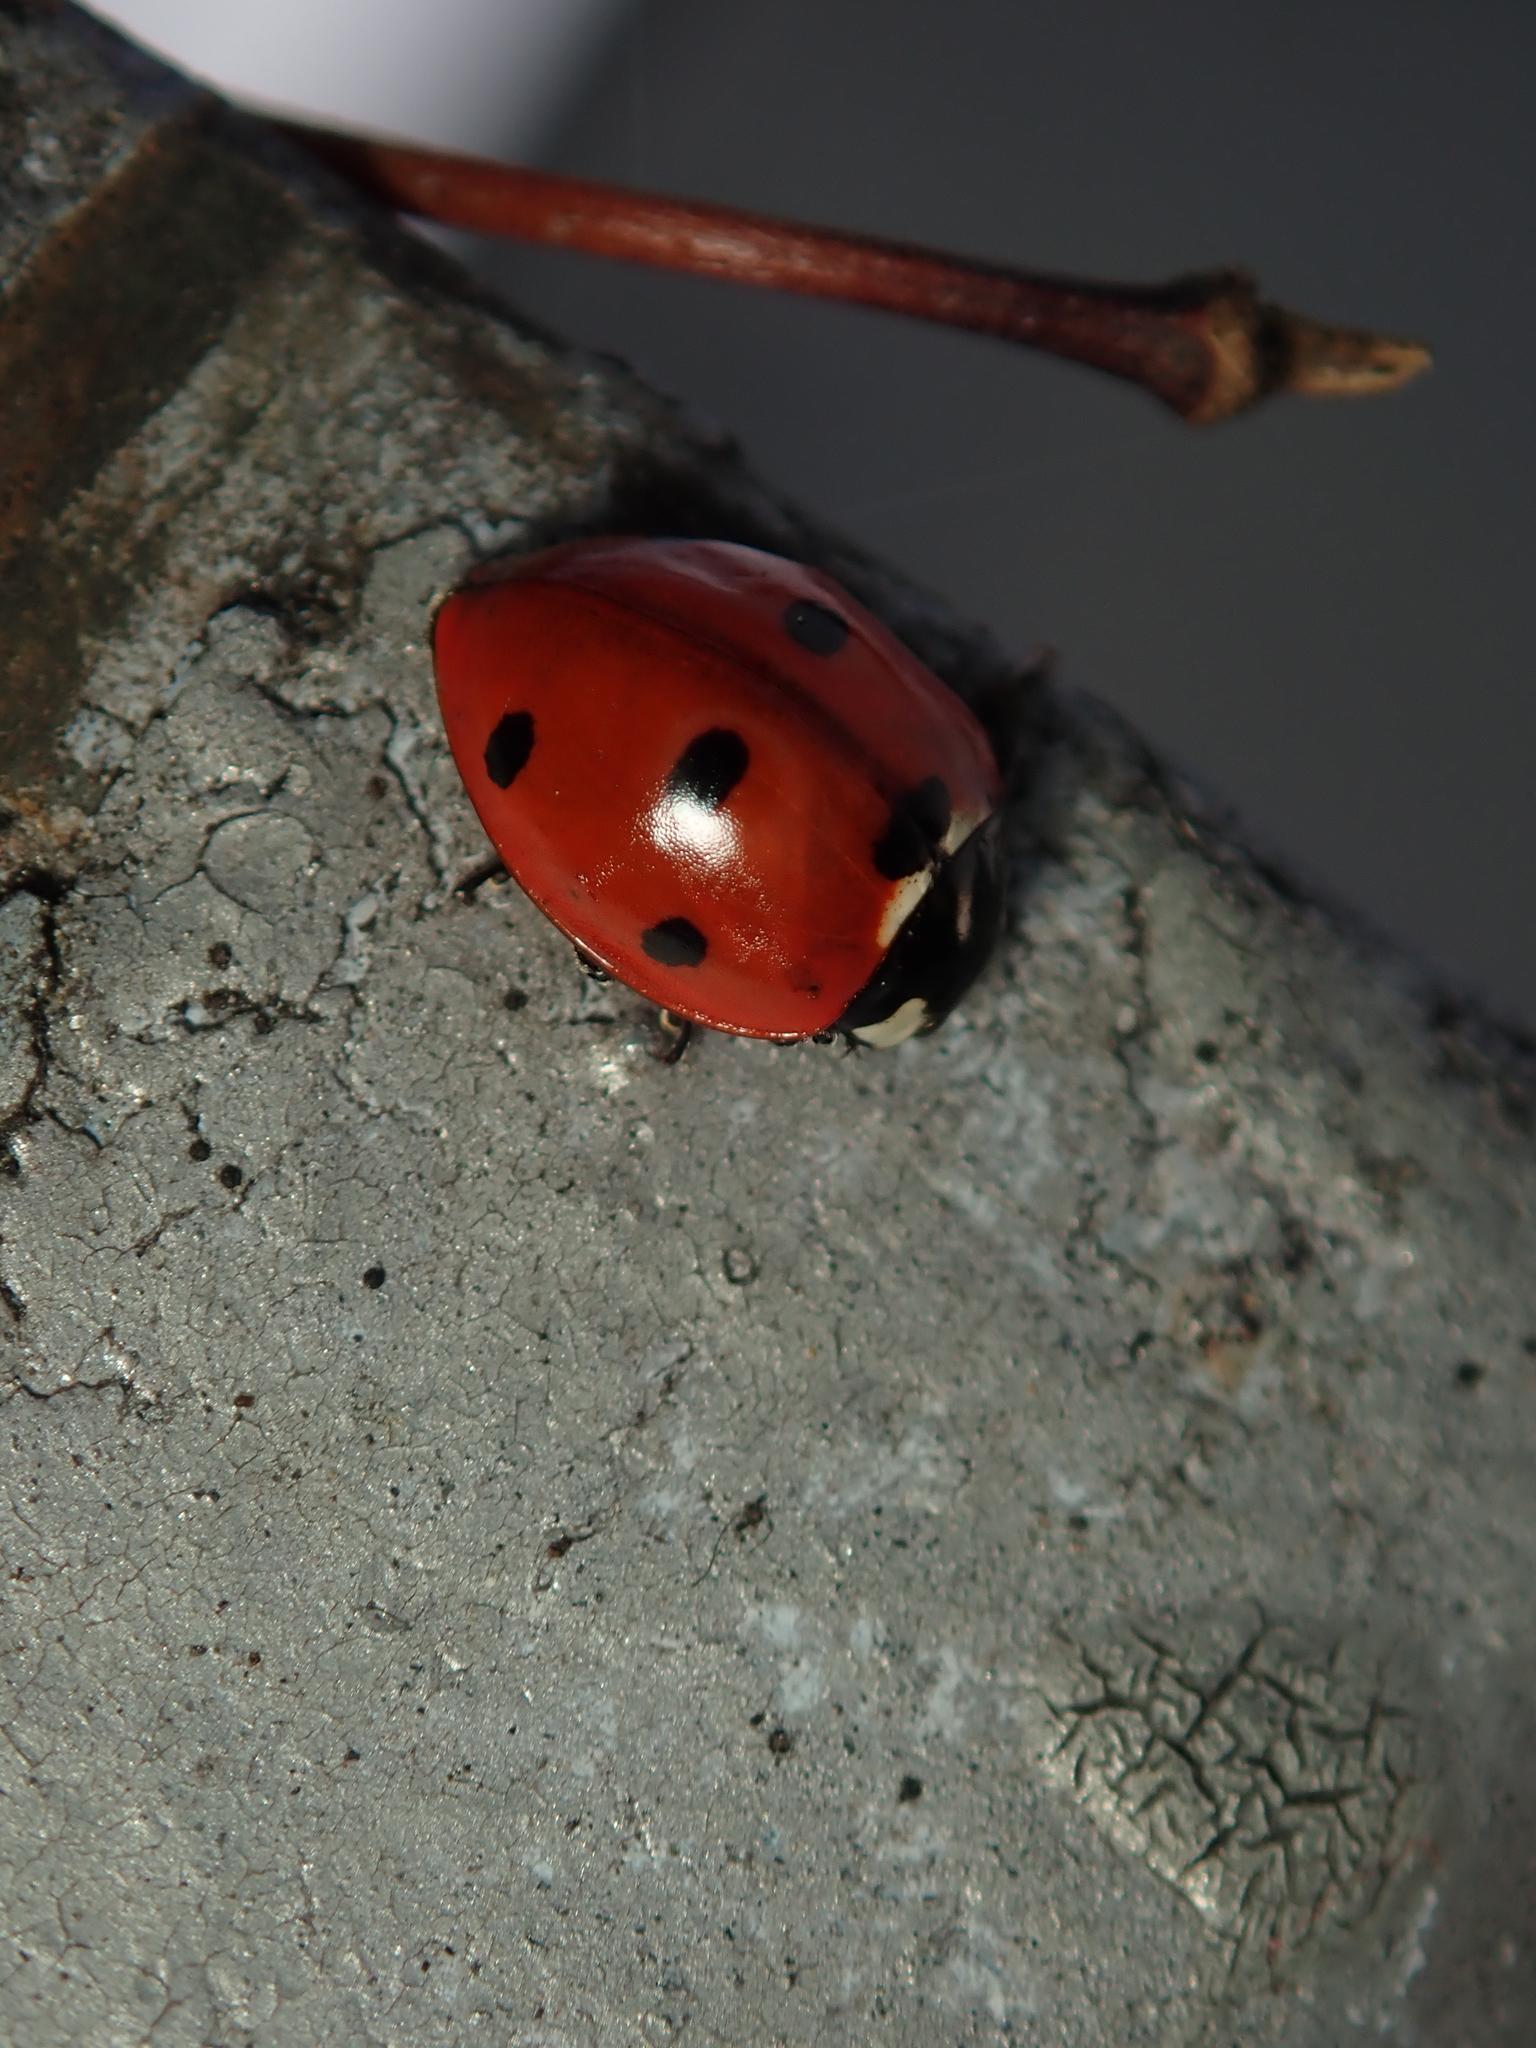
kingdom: Animalia
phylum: Arthropoda
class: Insecta
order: Coleoptera
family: Coccinellidae
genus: Coccinella
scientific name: Coccinella septempunctata
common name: Sevenspotted lady beetle
